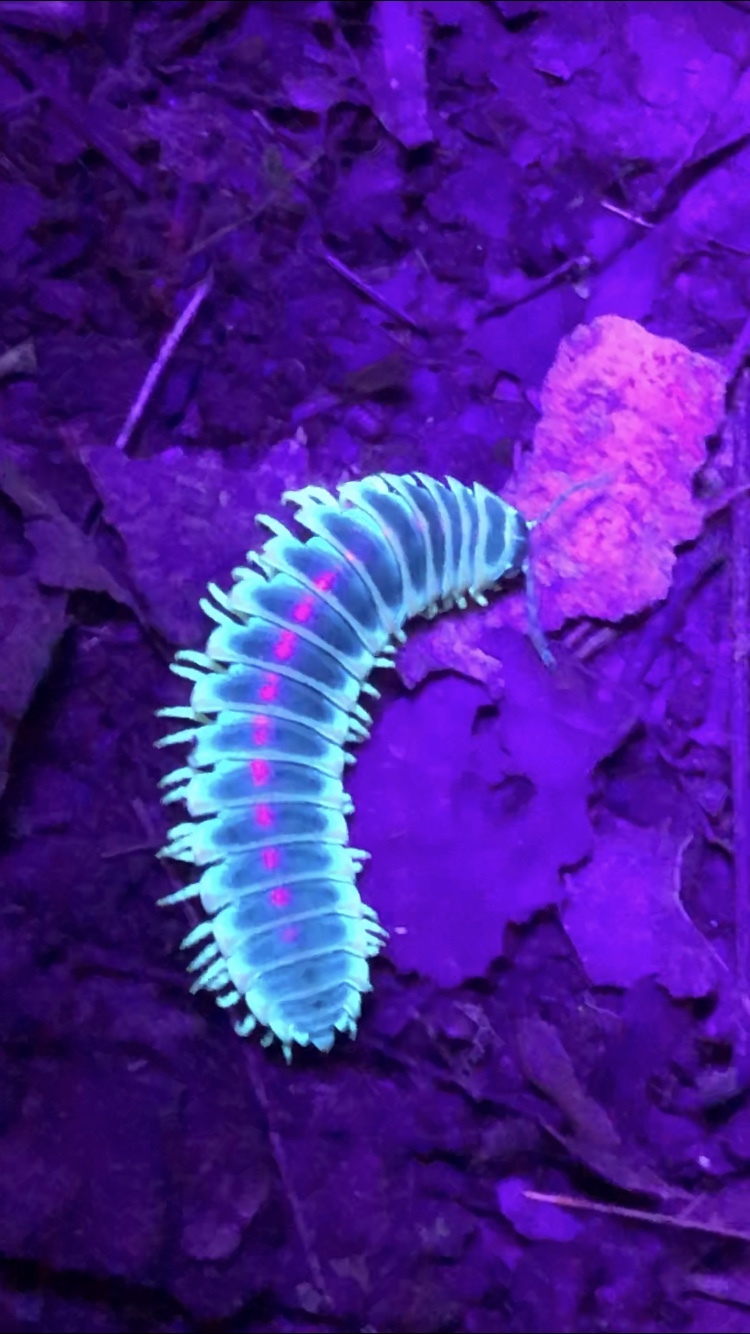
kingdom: Animalia
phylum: Arthropoda
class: Diplopoda
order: Polydesmida
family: Xystodesmidae
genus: Apheloria
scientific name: Apheloria virginiensis
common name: Black-and-gold flat millipede
